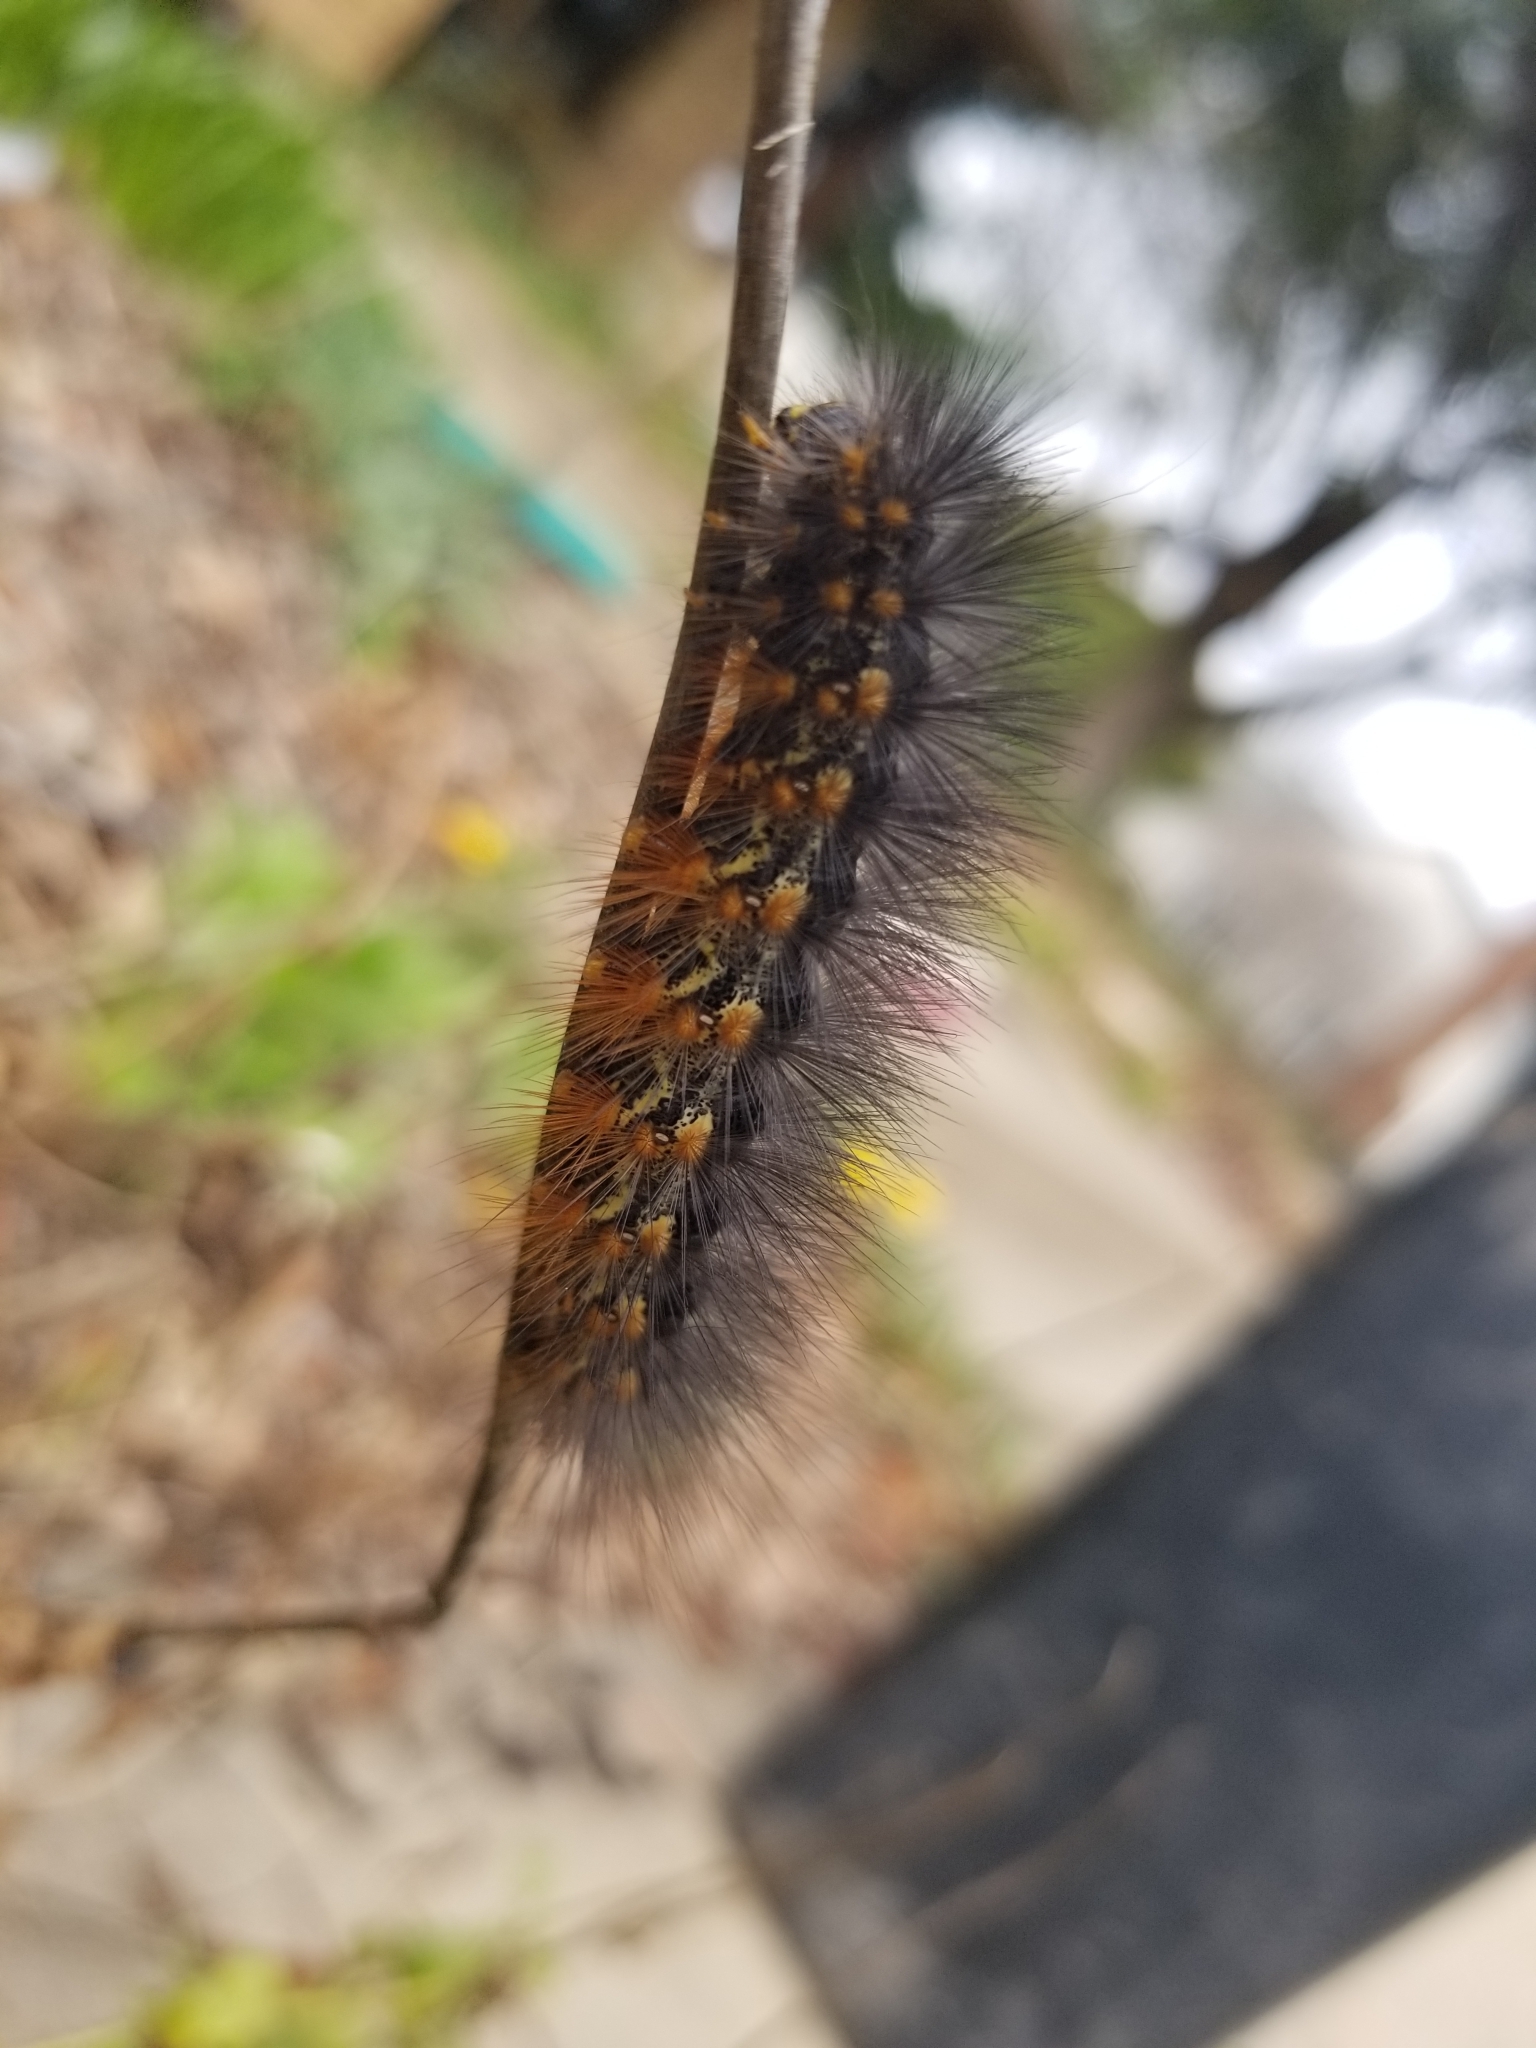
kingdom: Animalia
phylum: Arthropoda
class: Insecta
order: Lepidoptera
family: Erebidae
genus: Estigmene
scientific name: Estigmene acrea
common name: Salt marsh moth
